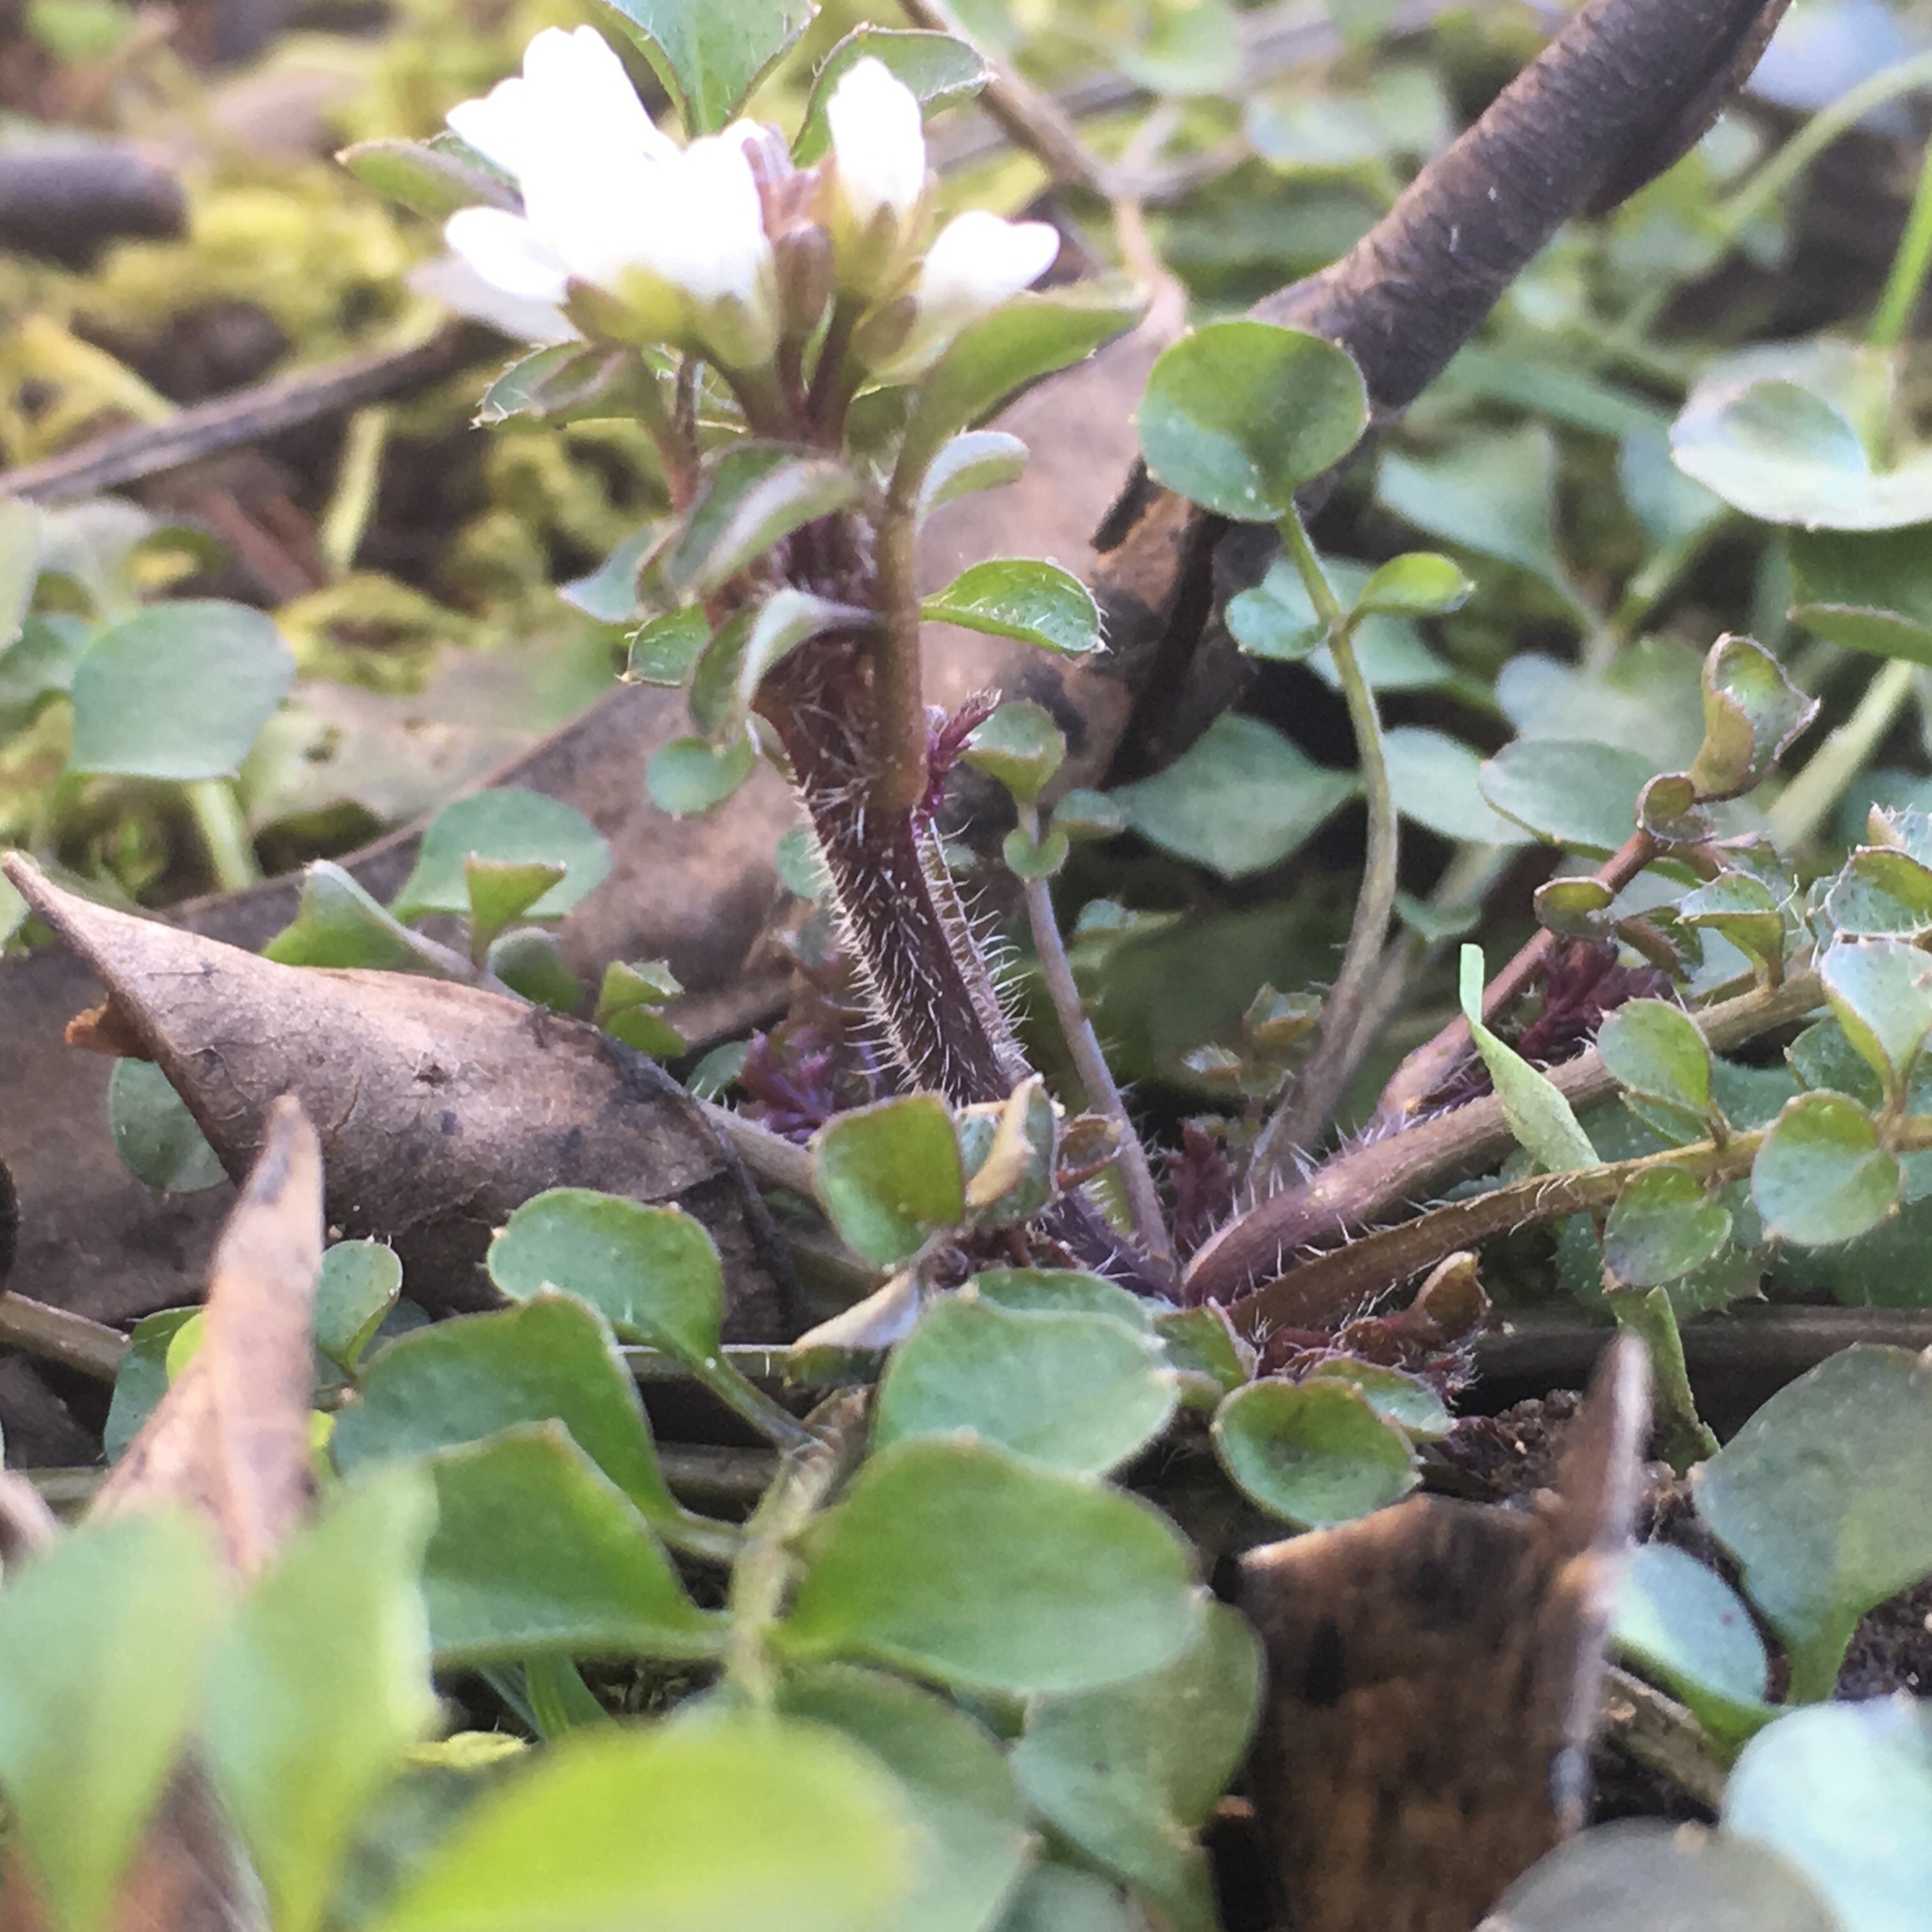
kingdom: Plantae
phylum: Tracheophyta
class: Magnoliopsida
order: Brassicales
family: Brassicaceae
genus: Cardamine
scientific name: Cardamine hirsuta
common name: Hairy bittercress
